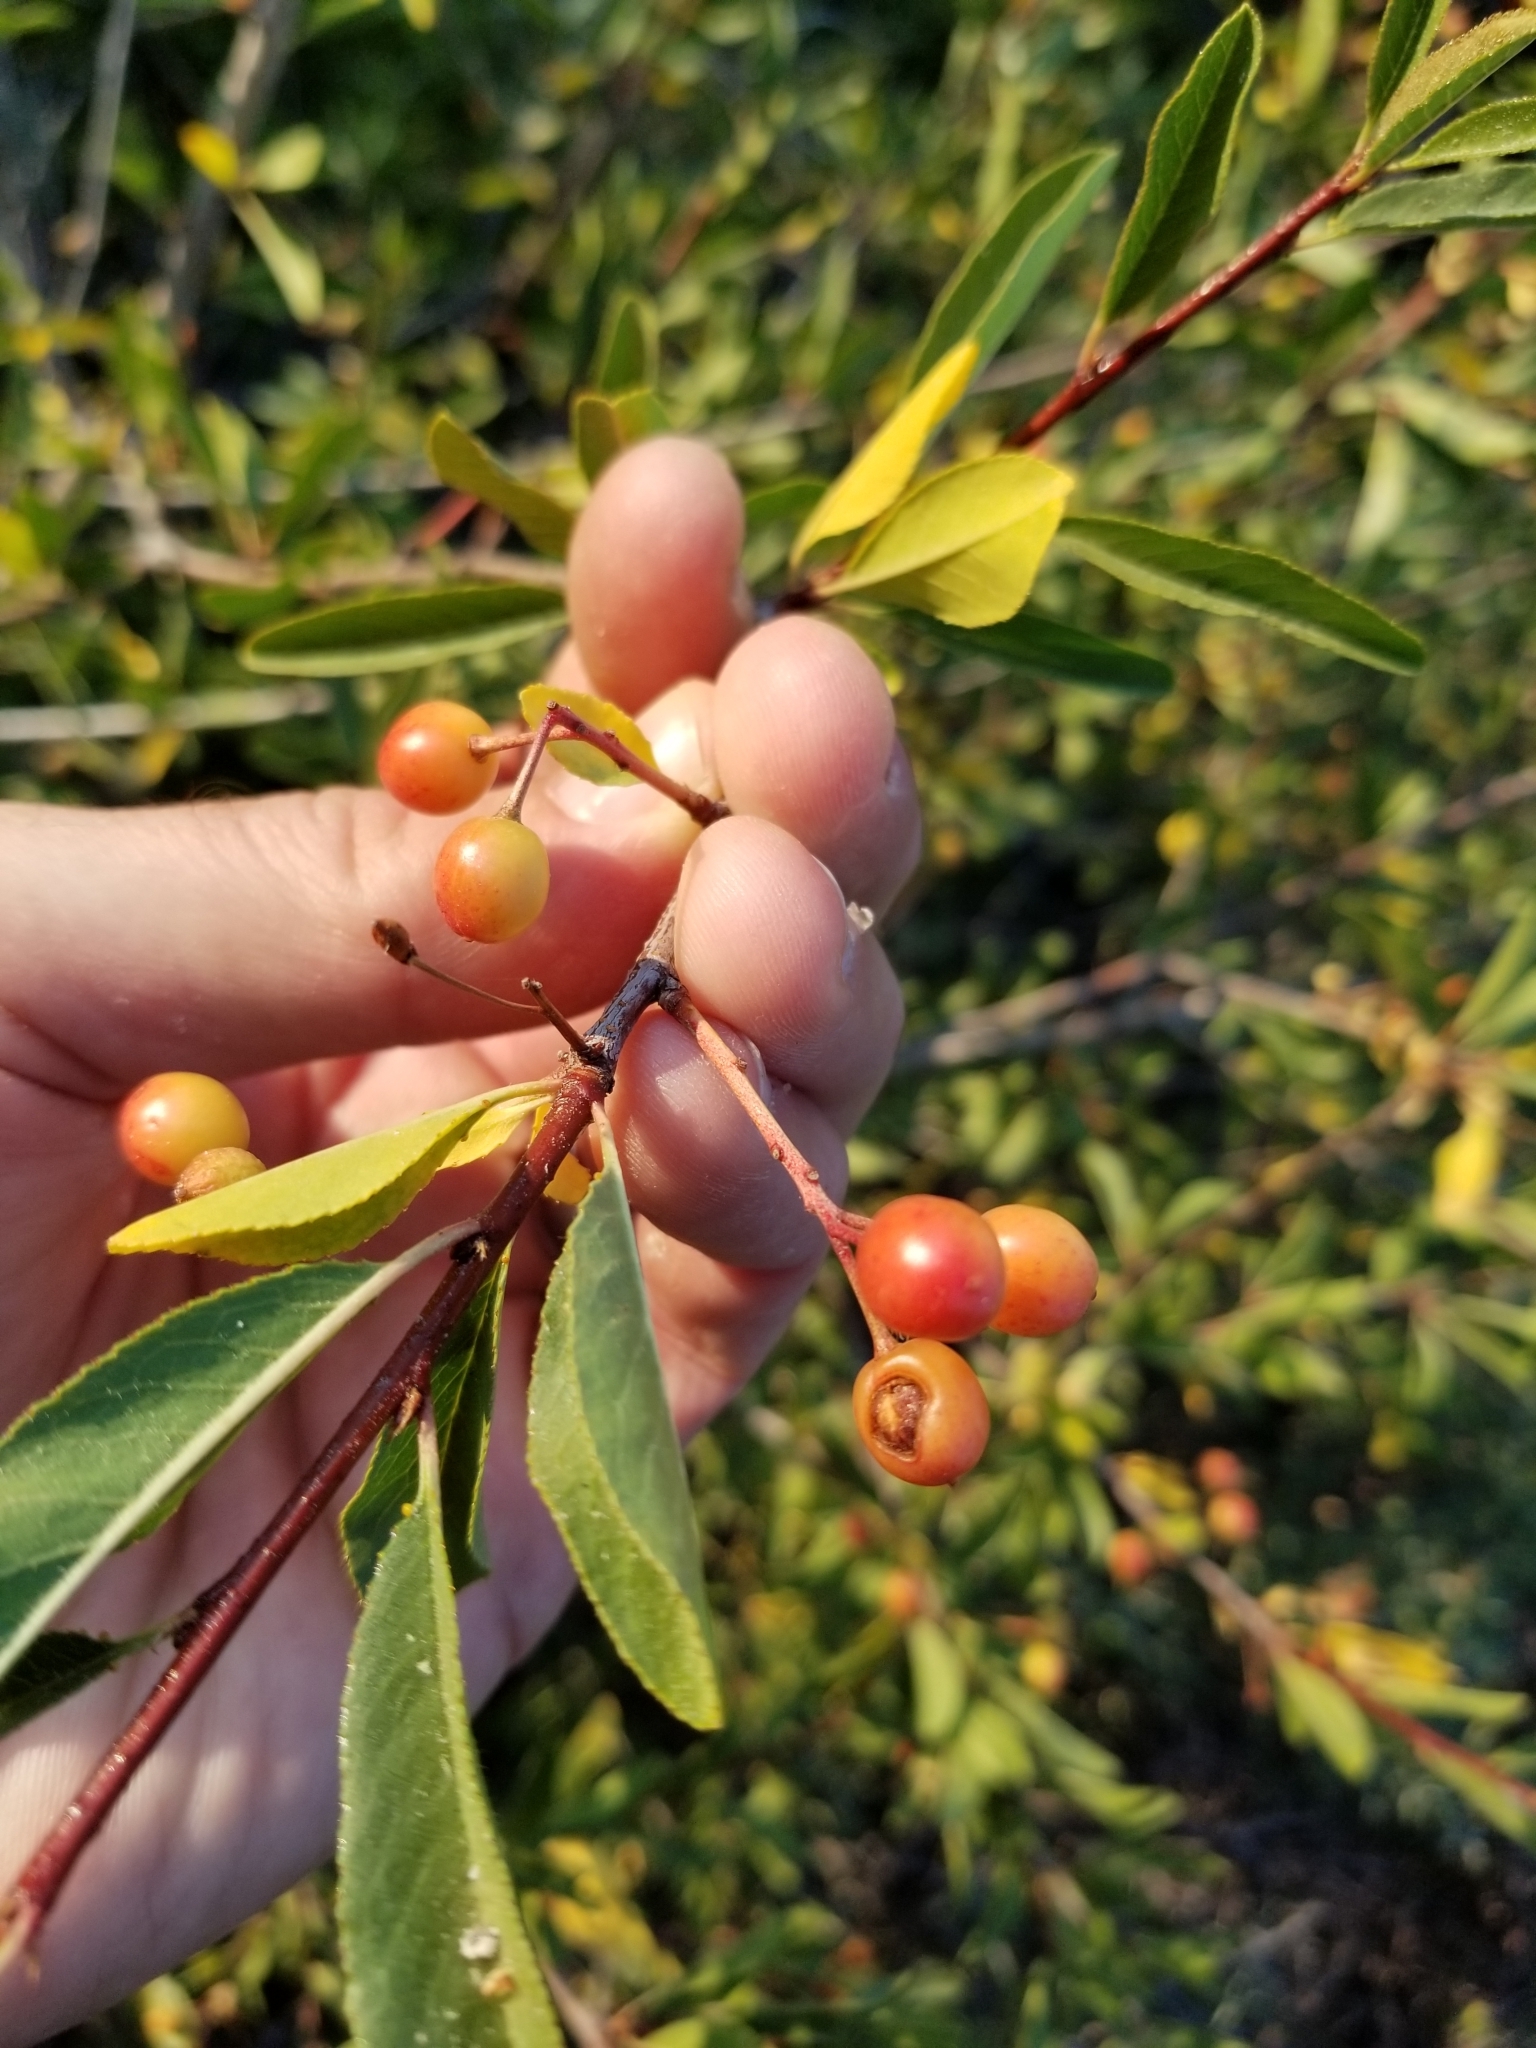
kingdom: Plantae
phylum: Tracheophyta
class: Magnoliopsida
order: Rosales
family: Rosaceae
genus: Prunus
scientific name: Prunus emarginata
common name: Bitter cherry
